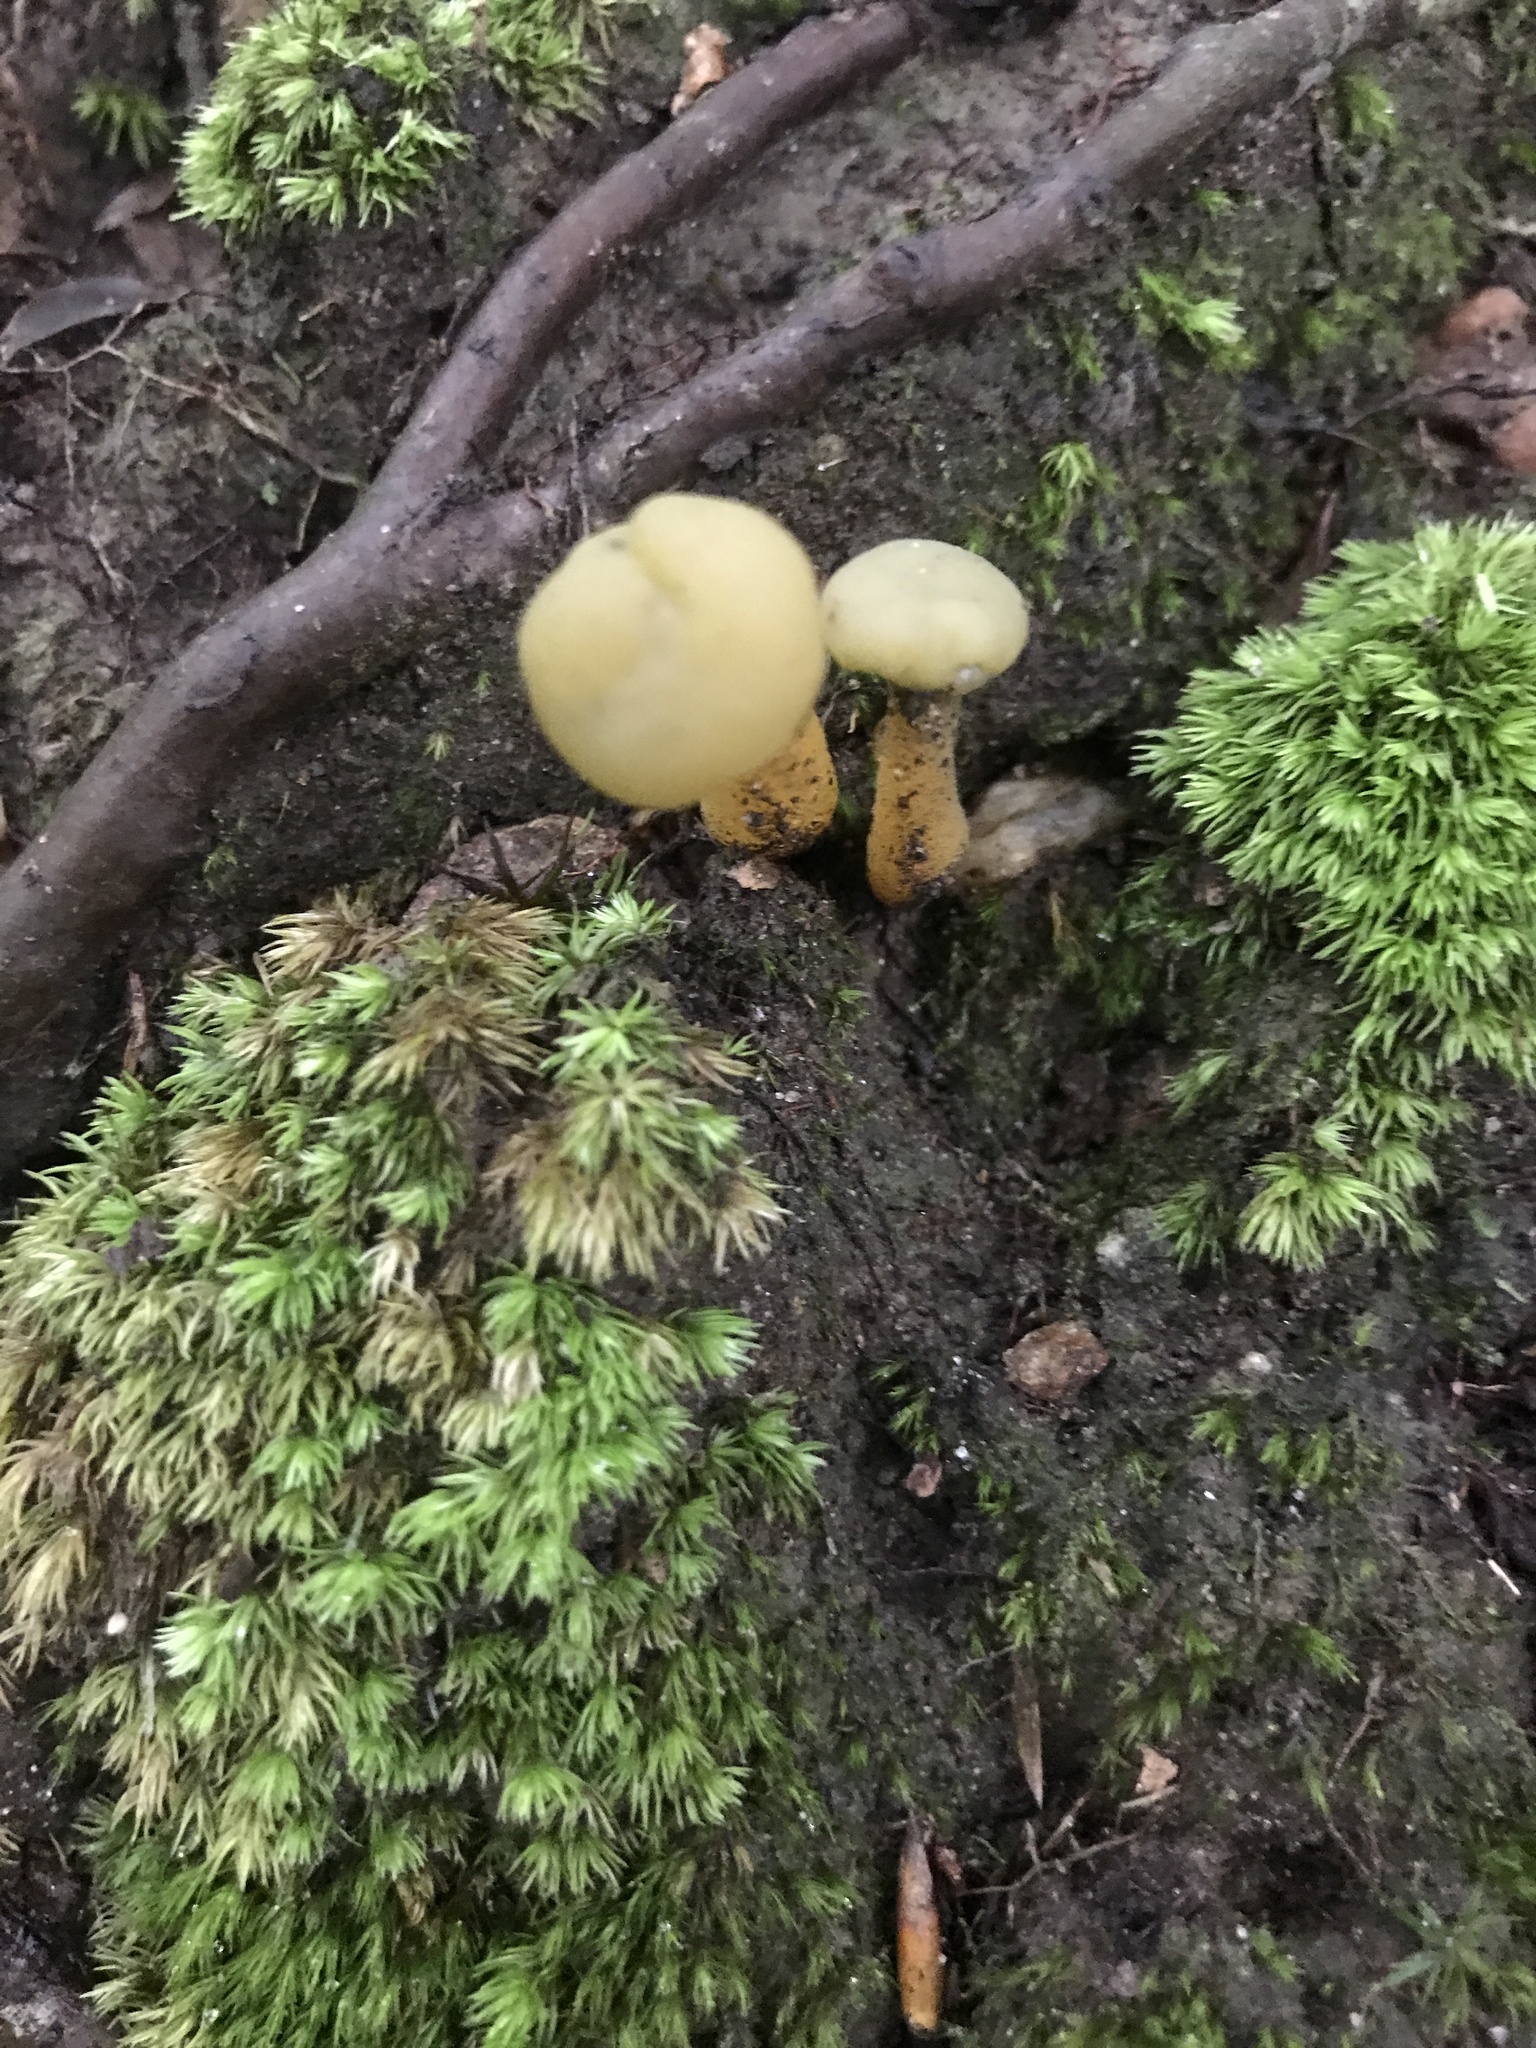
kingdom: Fungi
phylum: Ascomycota
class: Leotiomycetes
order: Leotiales
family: Leotiaceae
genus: Leotia
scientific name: Leotia lubrica
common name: Jellybaby
